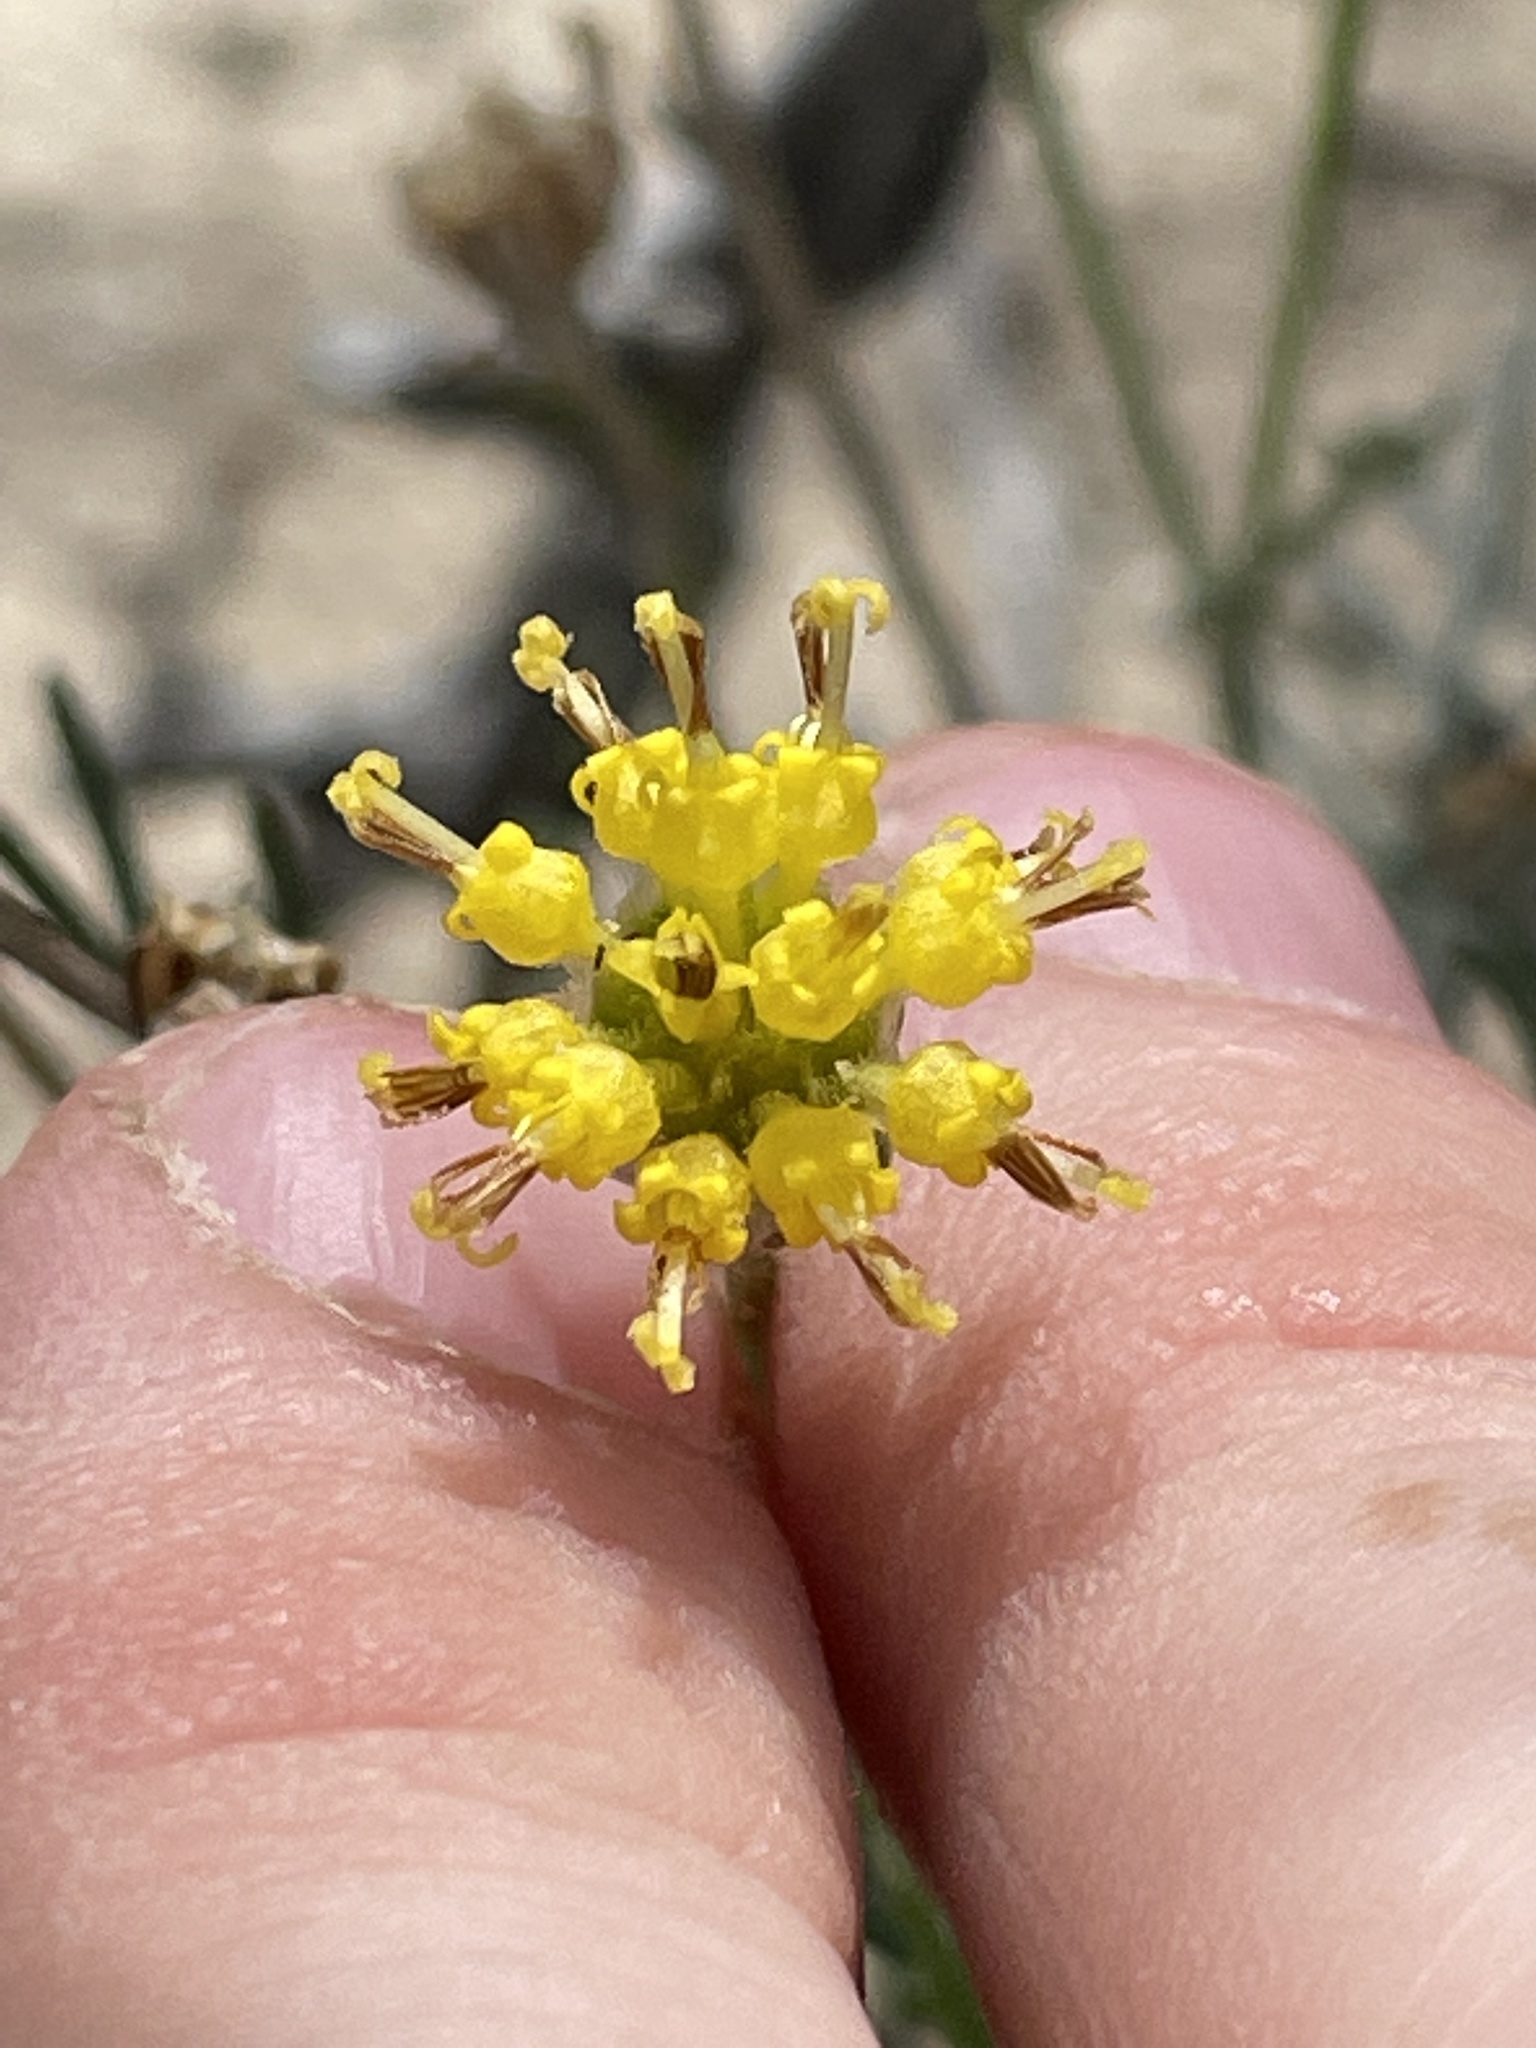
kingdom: Plantae
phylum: Tracheophyta
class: Magnoliopsida
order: Asterales
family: Asteraceae
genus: Hymenopappus
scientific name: Hymenopappus filifolius
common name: Columbia cutleaf
